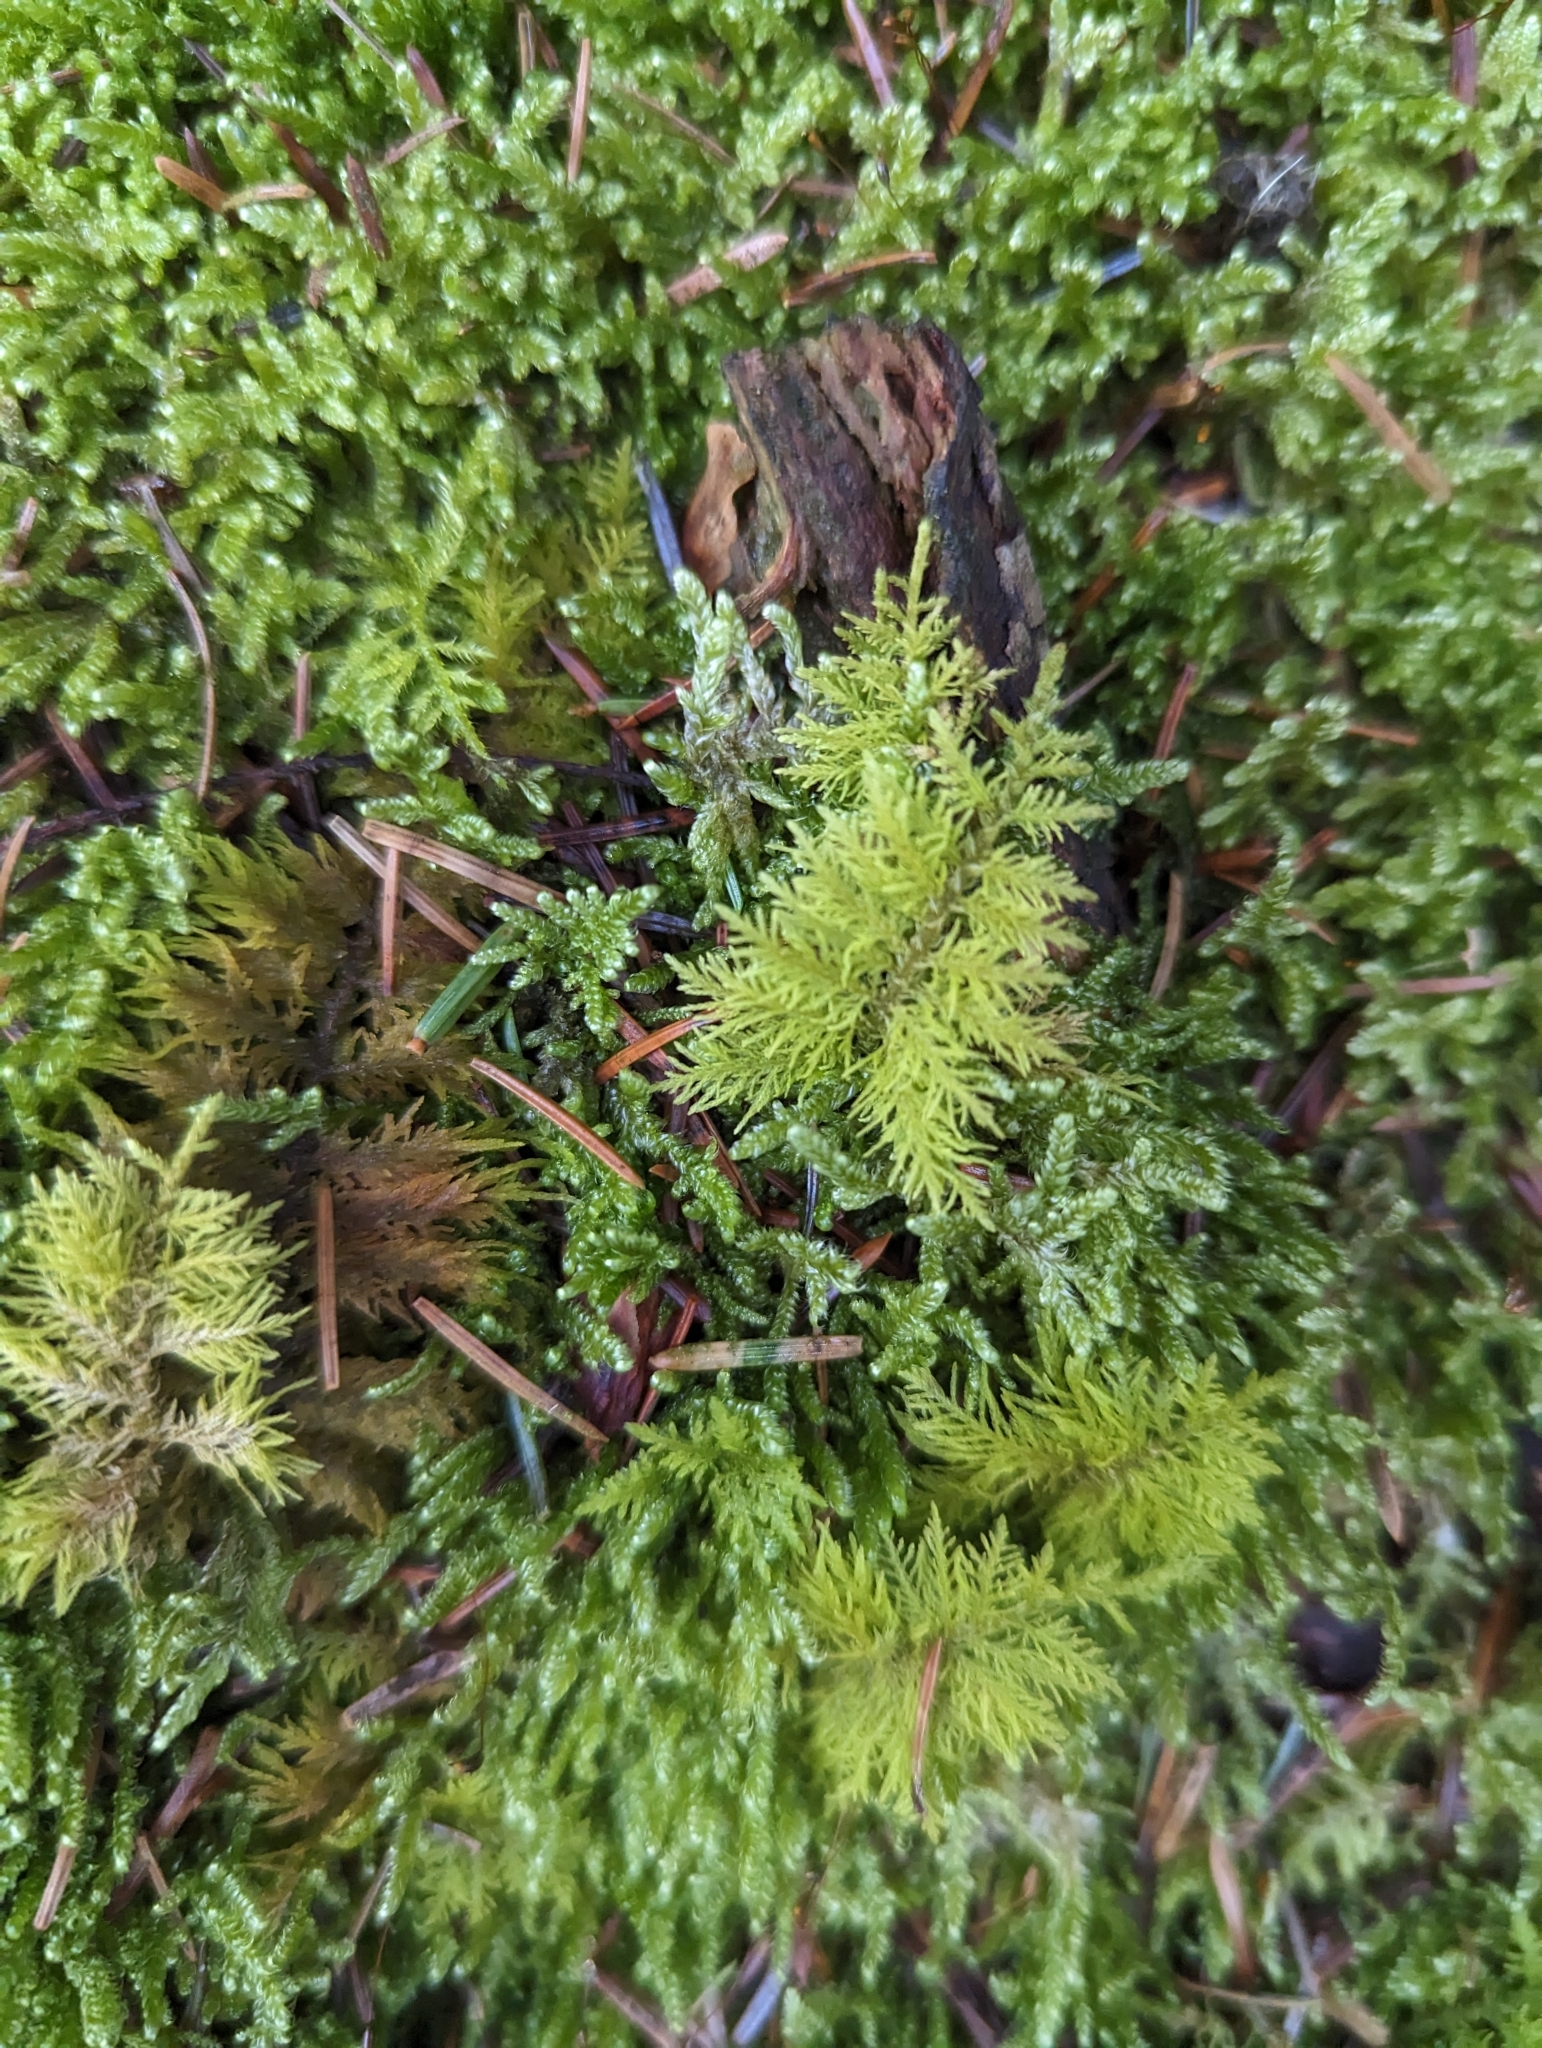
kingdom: Plantae
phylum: Bryophyta
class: Bryopsida
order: Hypnales
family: Thuidiaceae
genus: Thuidium
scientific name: Thuidium tamariscinum
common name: Common tamarisk-moss
